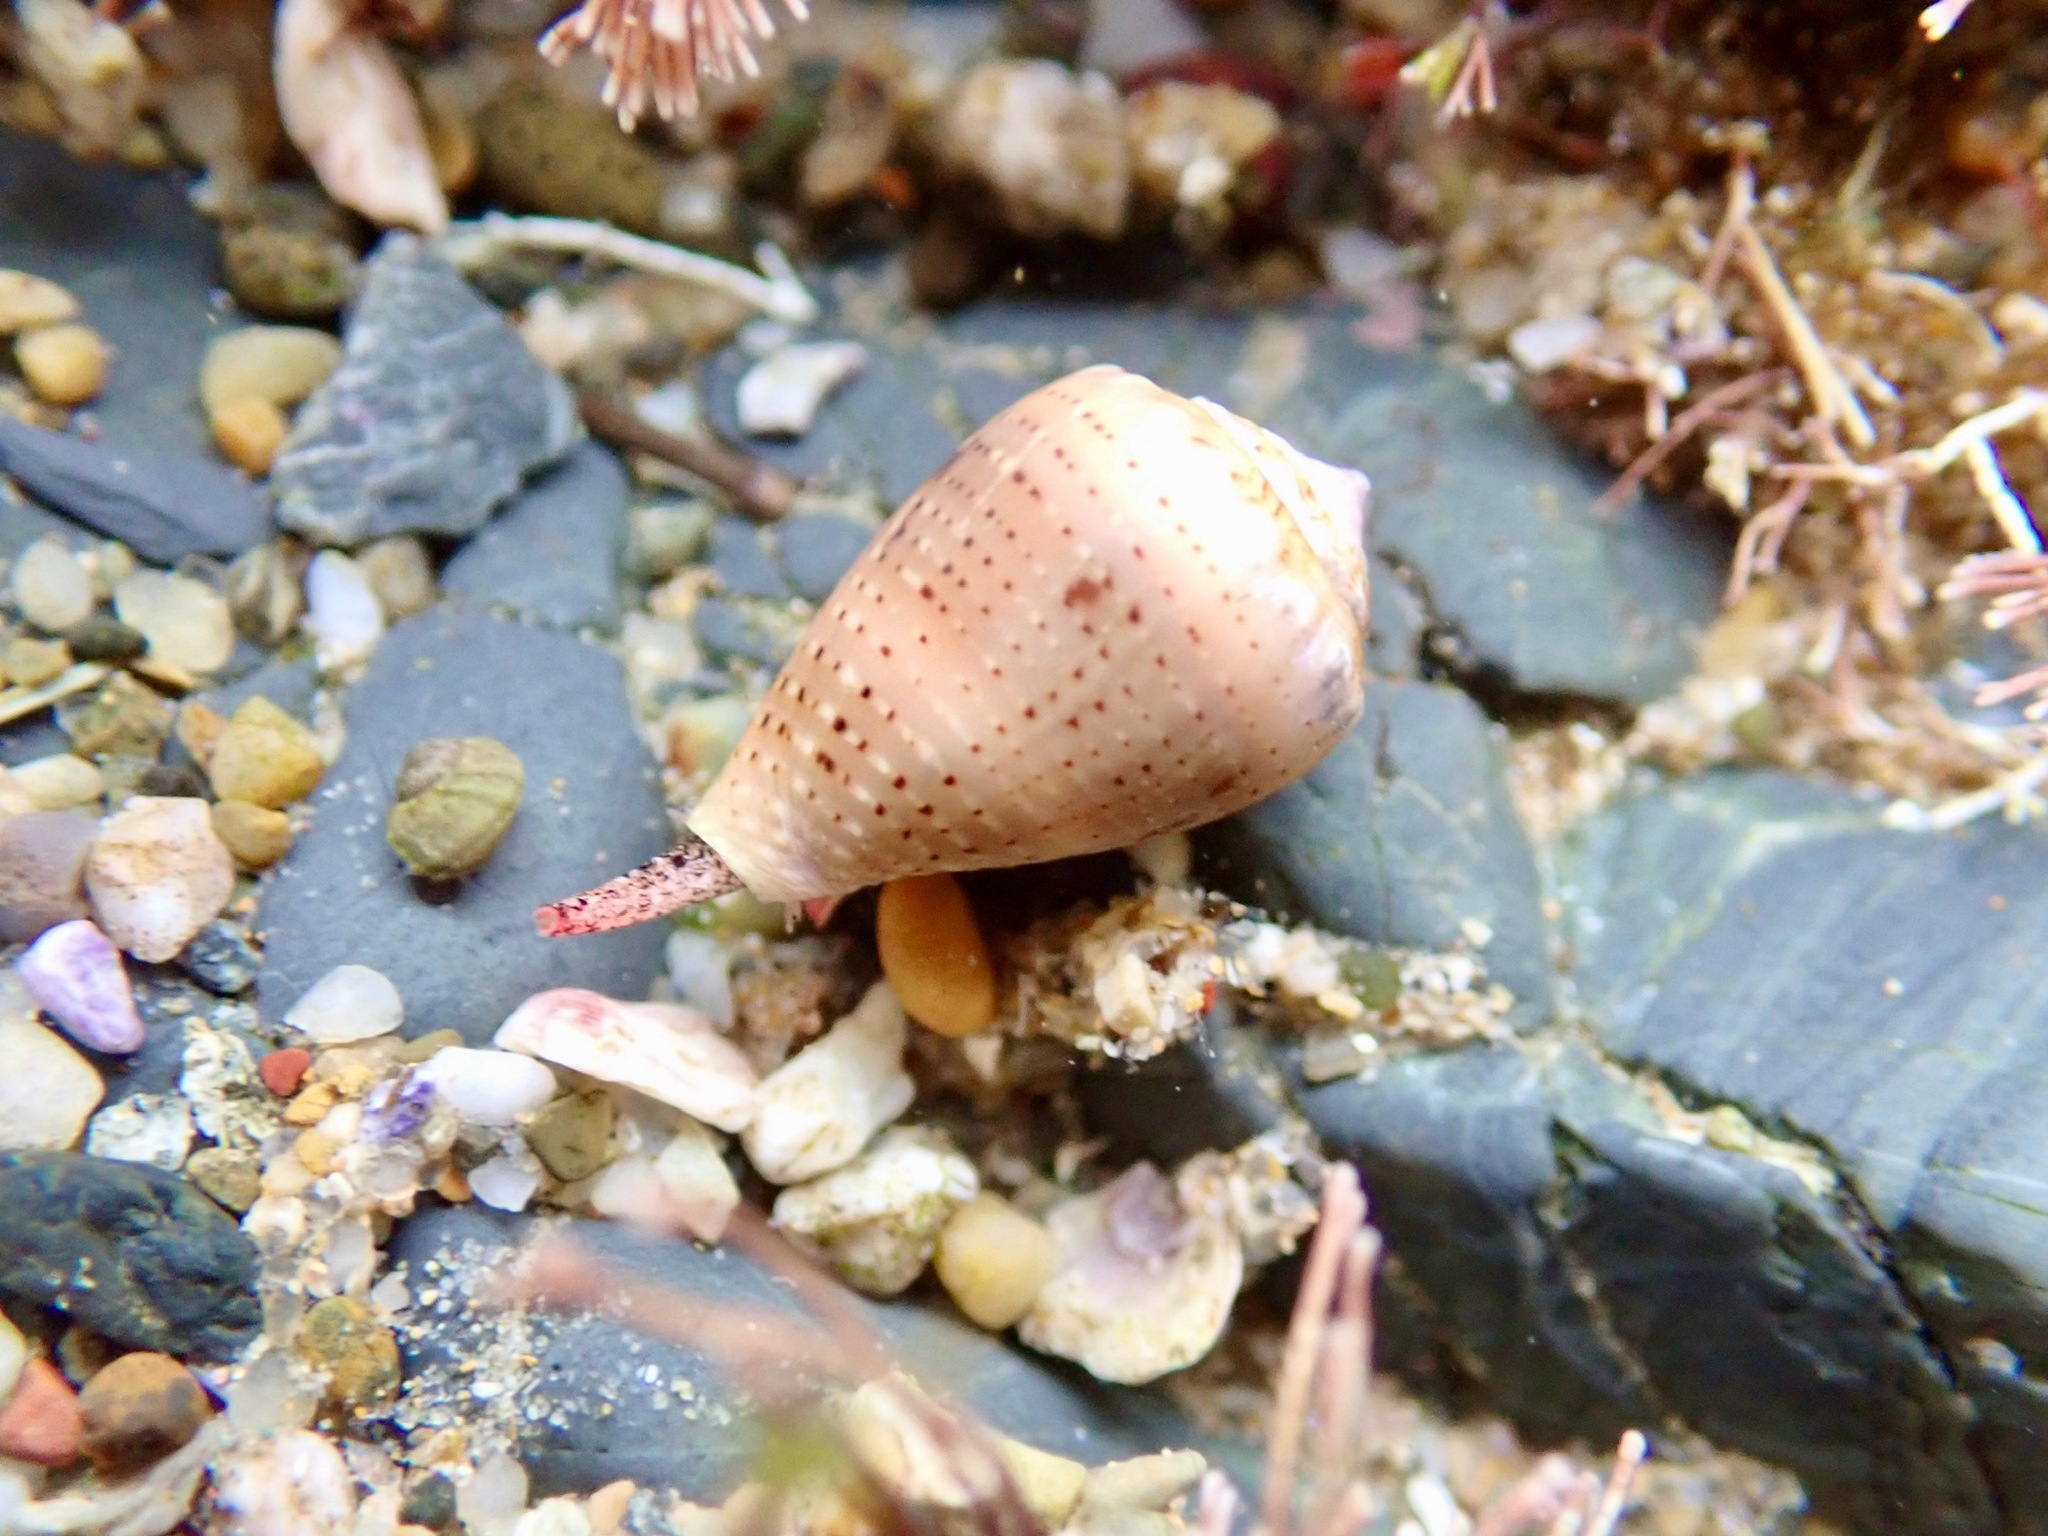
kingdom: Animalia
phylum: Mollusca
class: Gastropoda
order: Neogastropoda
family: Conidae
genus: Conus
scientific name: Conus coronatus
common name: Coronated cone
